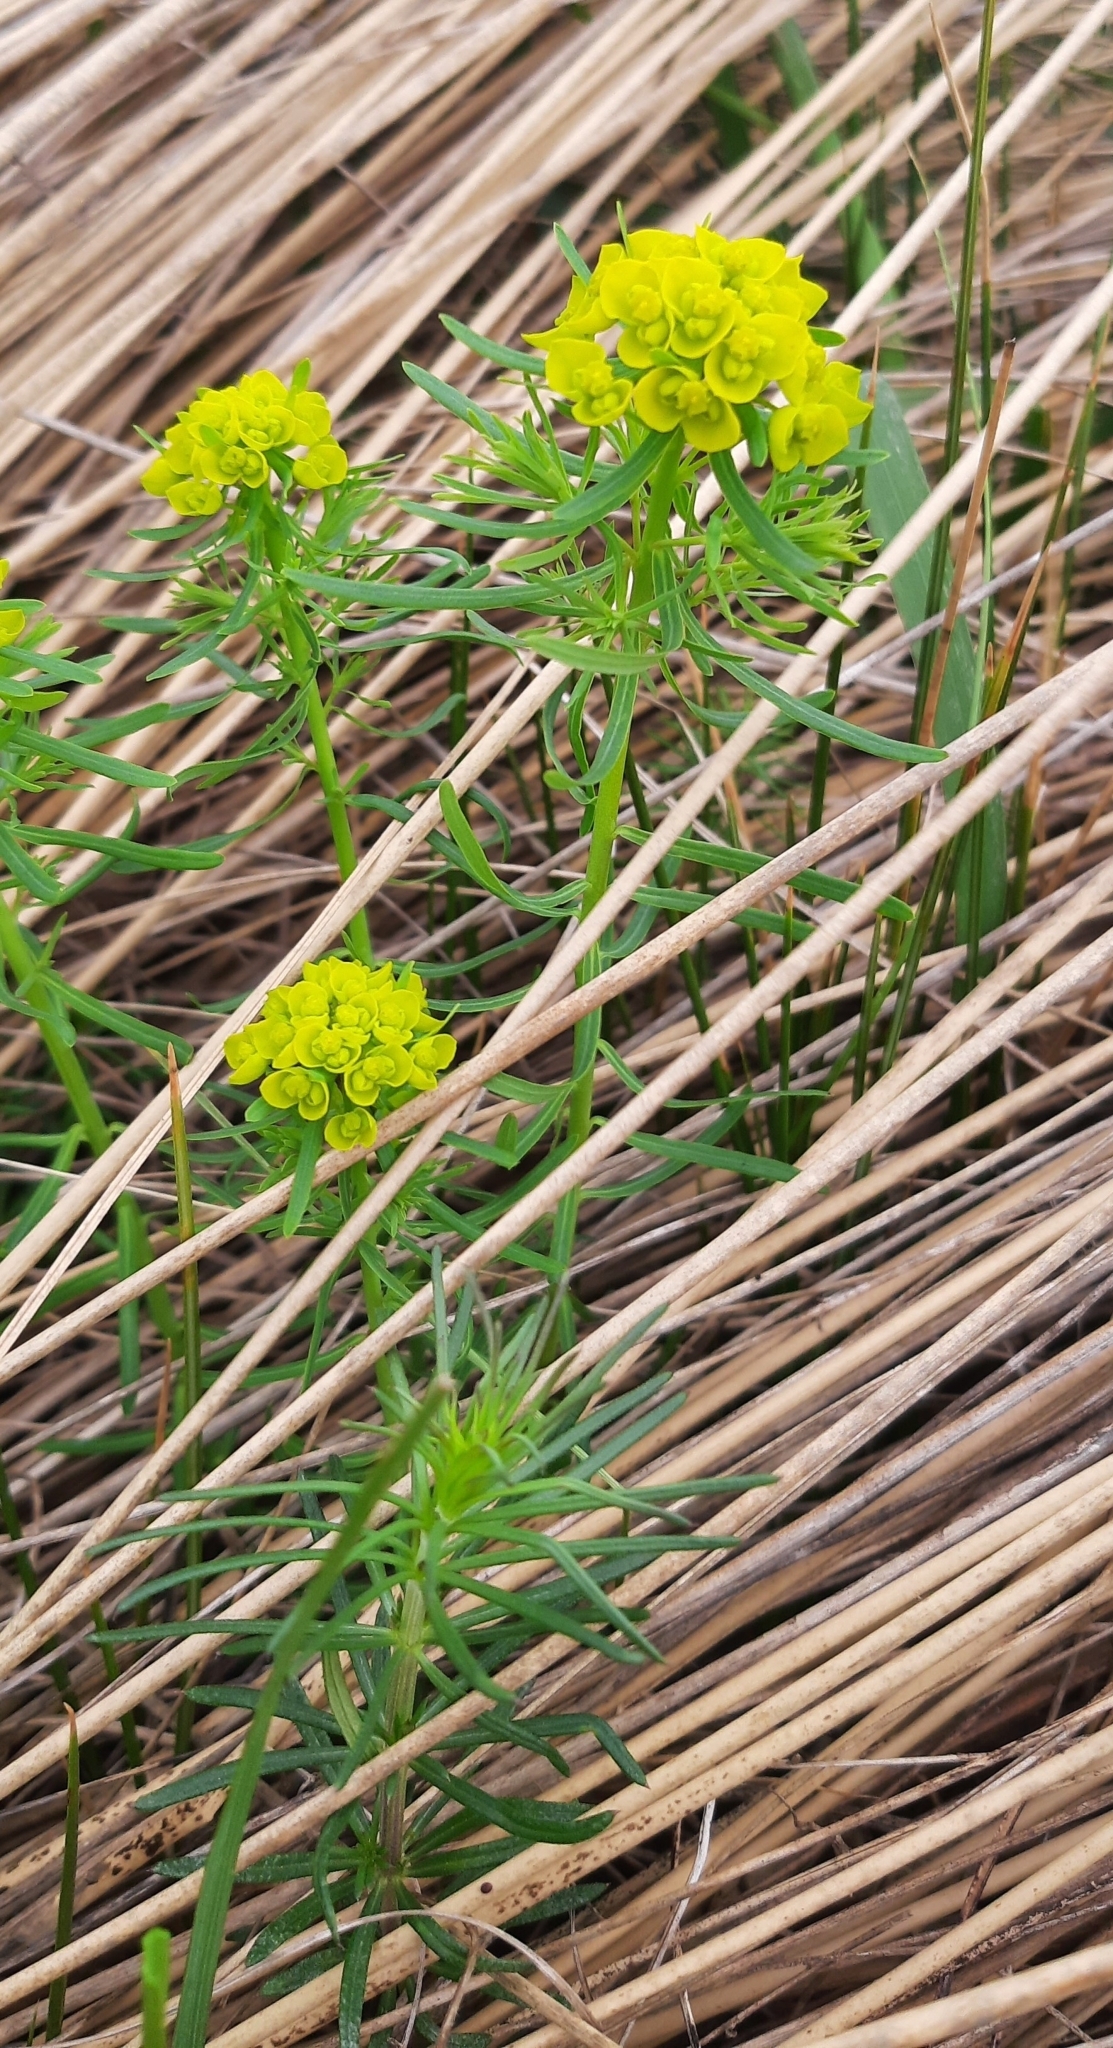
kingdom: Plantae
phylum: Tracheophyta
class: Magnoliopsida
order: Malpighiales
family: Euphorbiaceae
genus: Euphorbia
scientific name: Euphorbia cyparissias
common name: Cypress spurge
